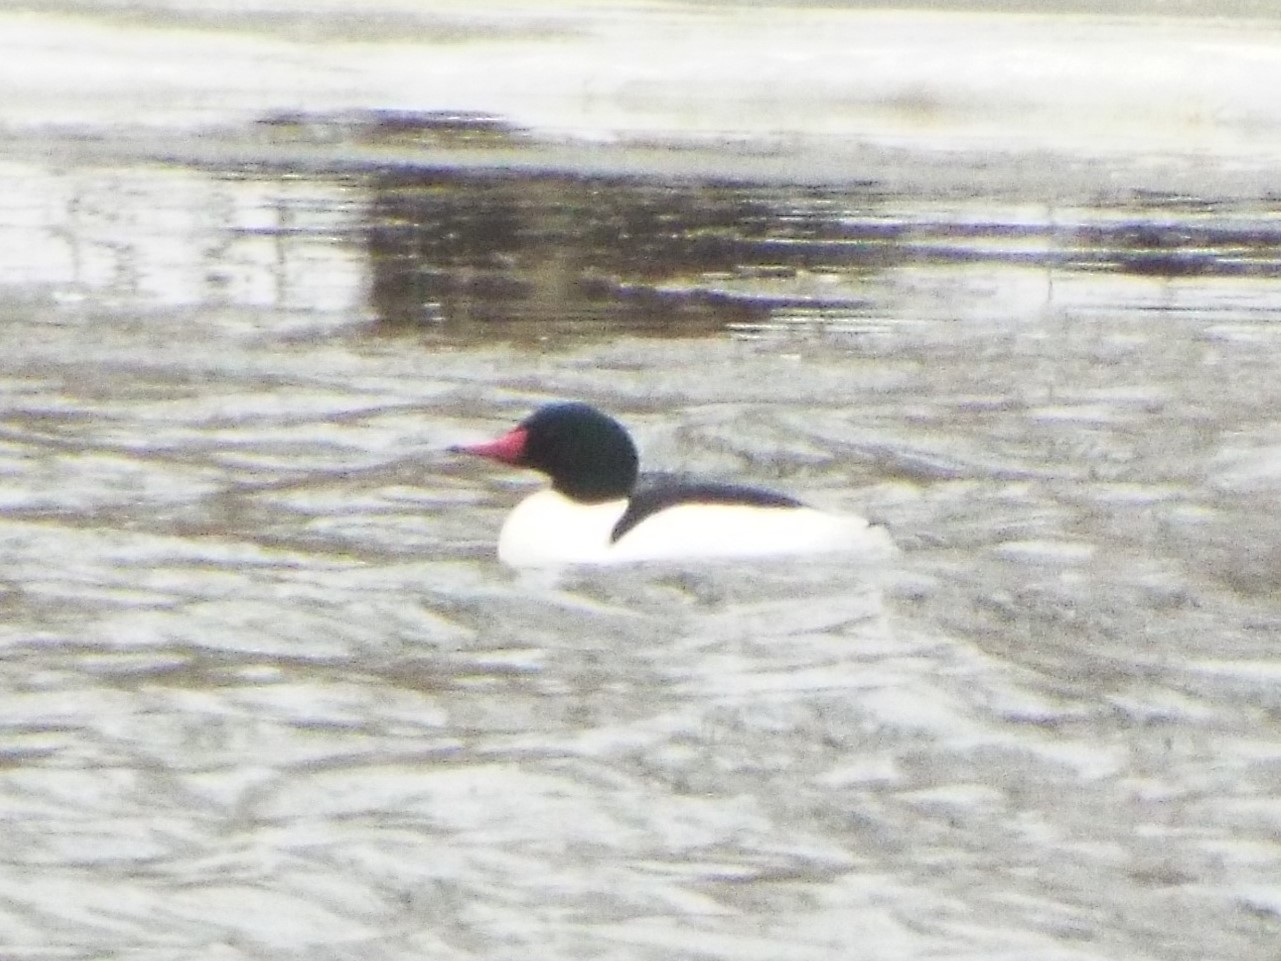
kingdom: Animalia
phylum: Chordata
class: Aves
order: Anseriformes
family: Anatidae
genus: Mergus
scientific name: Mergus merganser
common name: Common merganser
